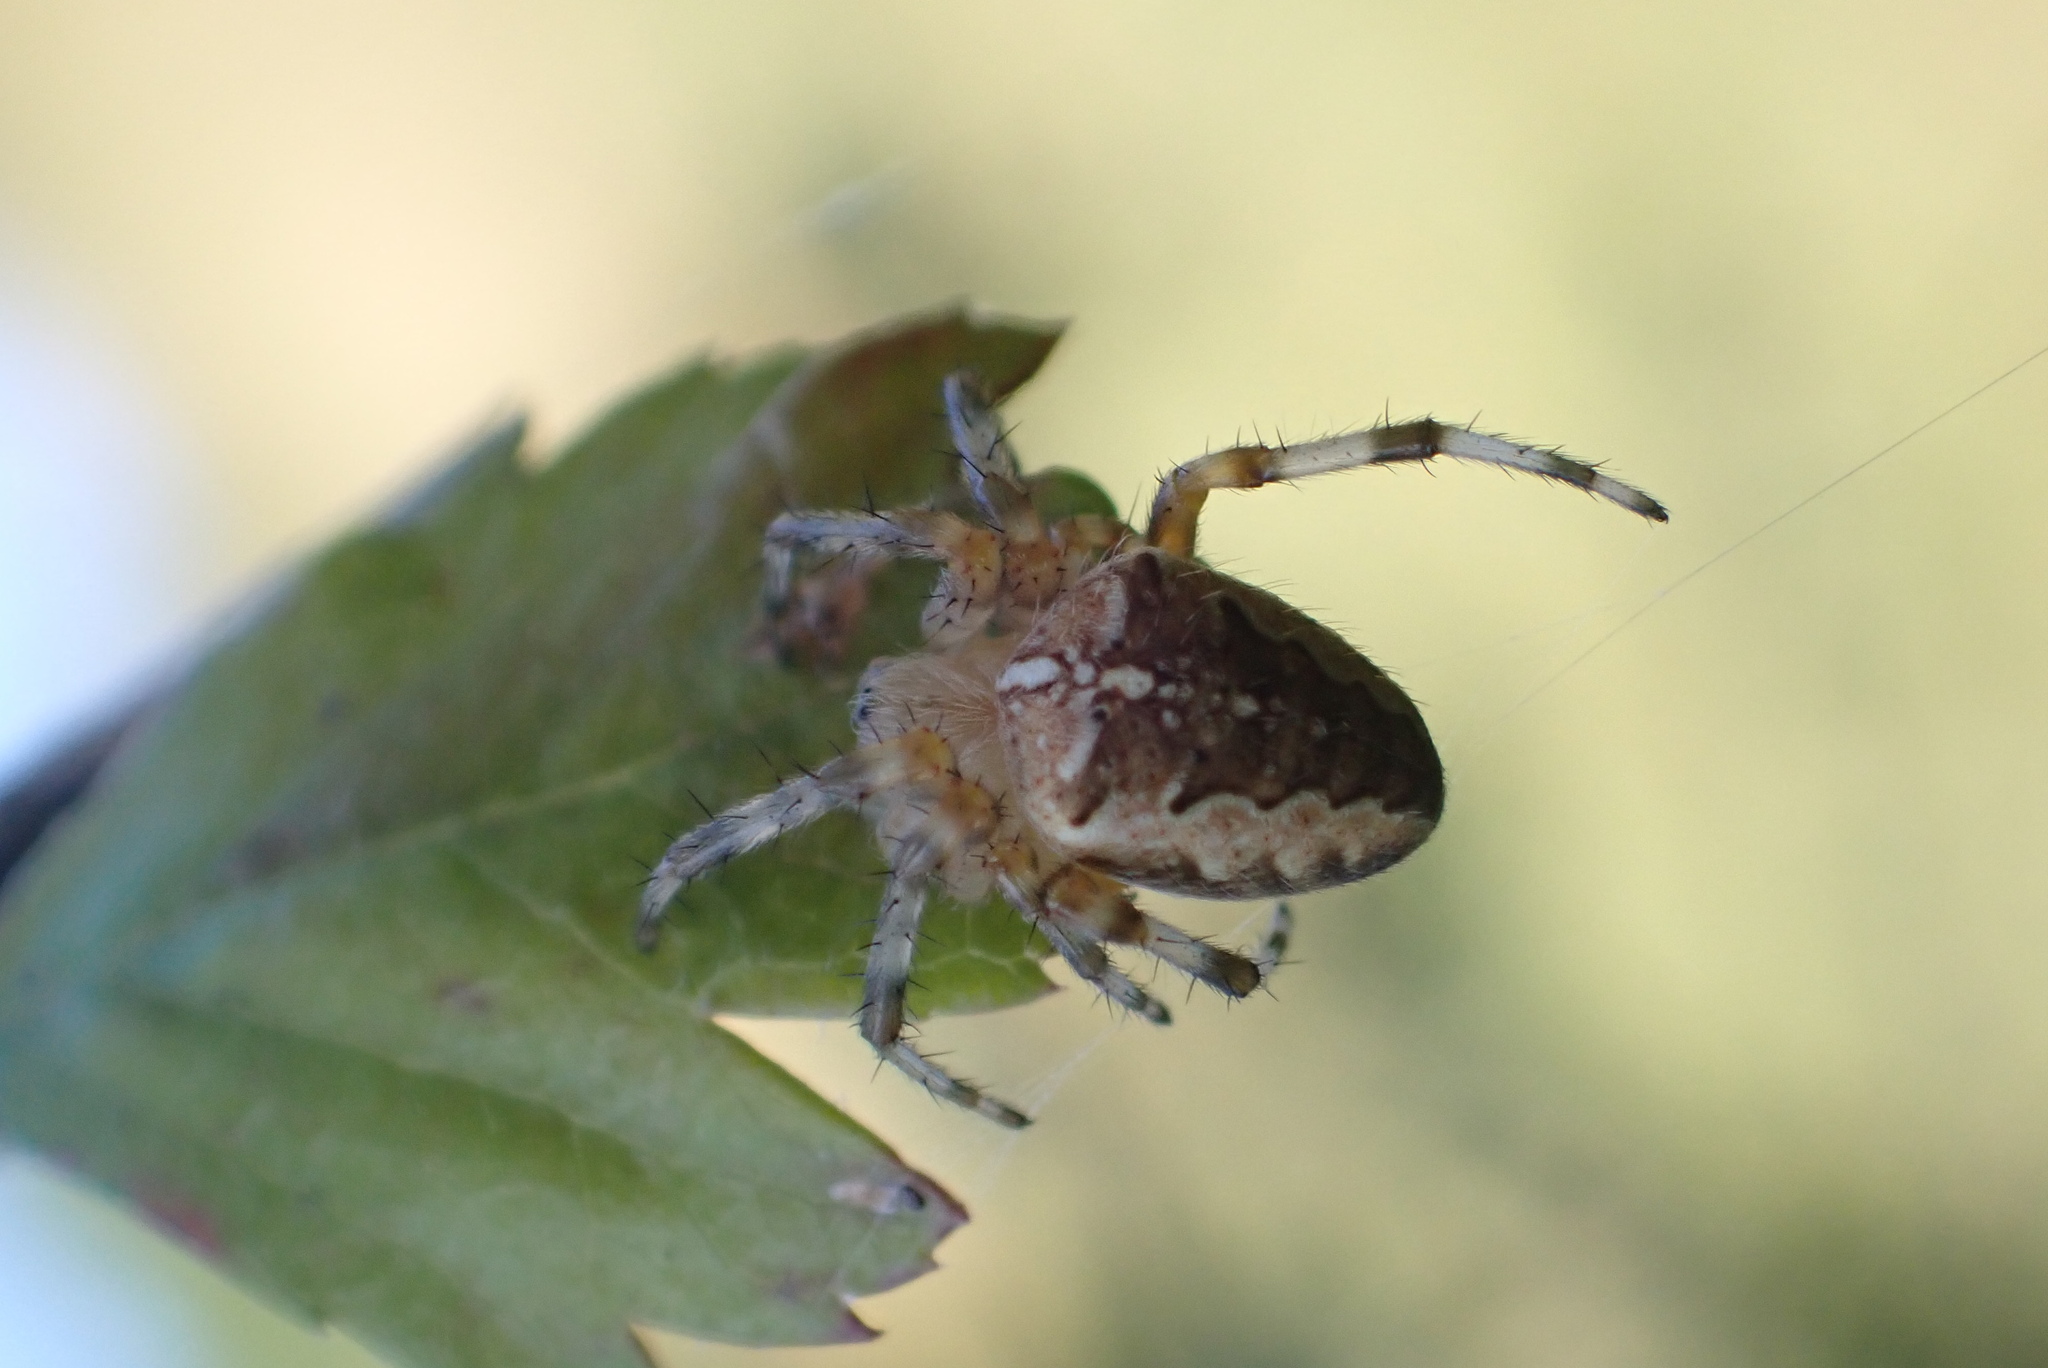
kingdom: Animalia
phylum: Arthropoda
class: Arachnida
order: Araneae
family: Araneidae
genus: Araneus
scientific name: Araneus diadematus
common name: Cross orbweaver
